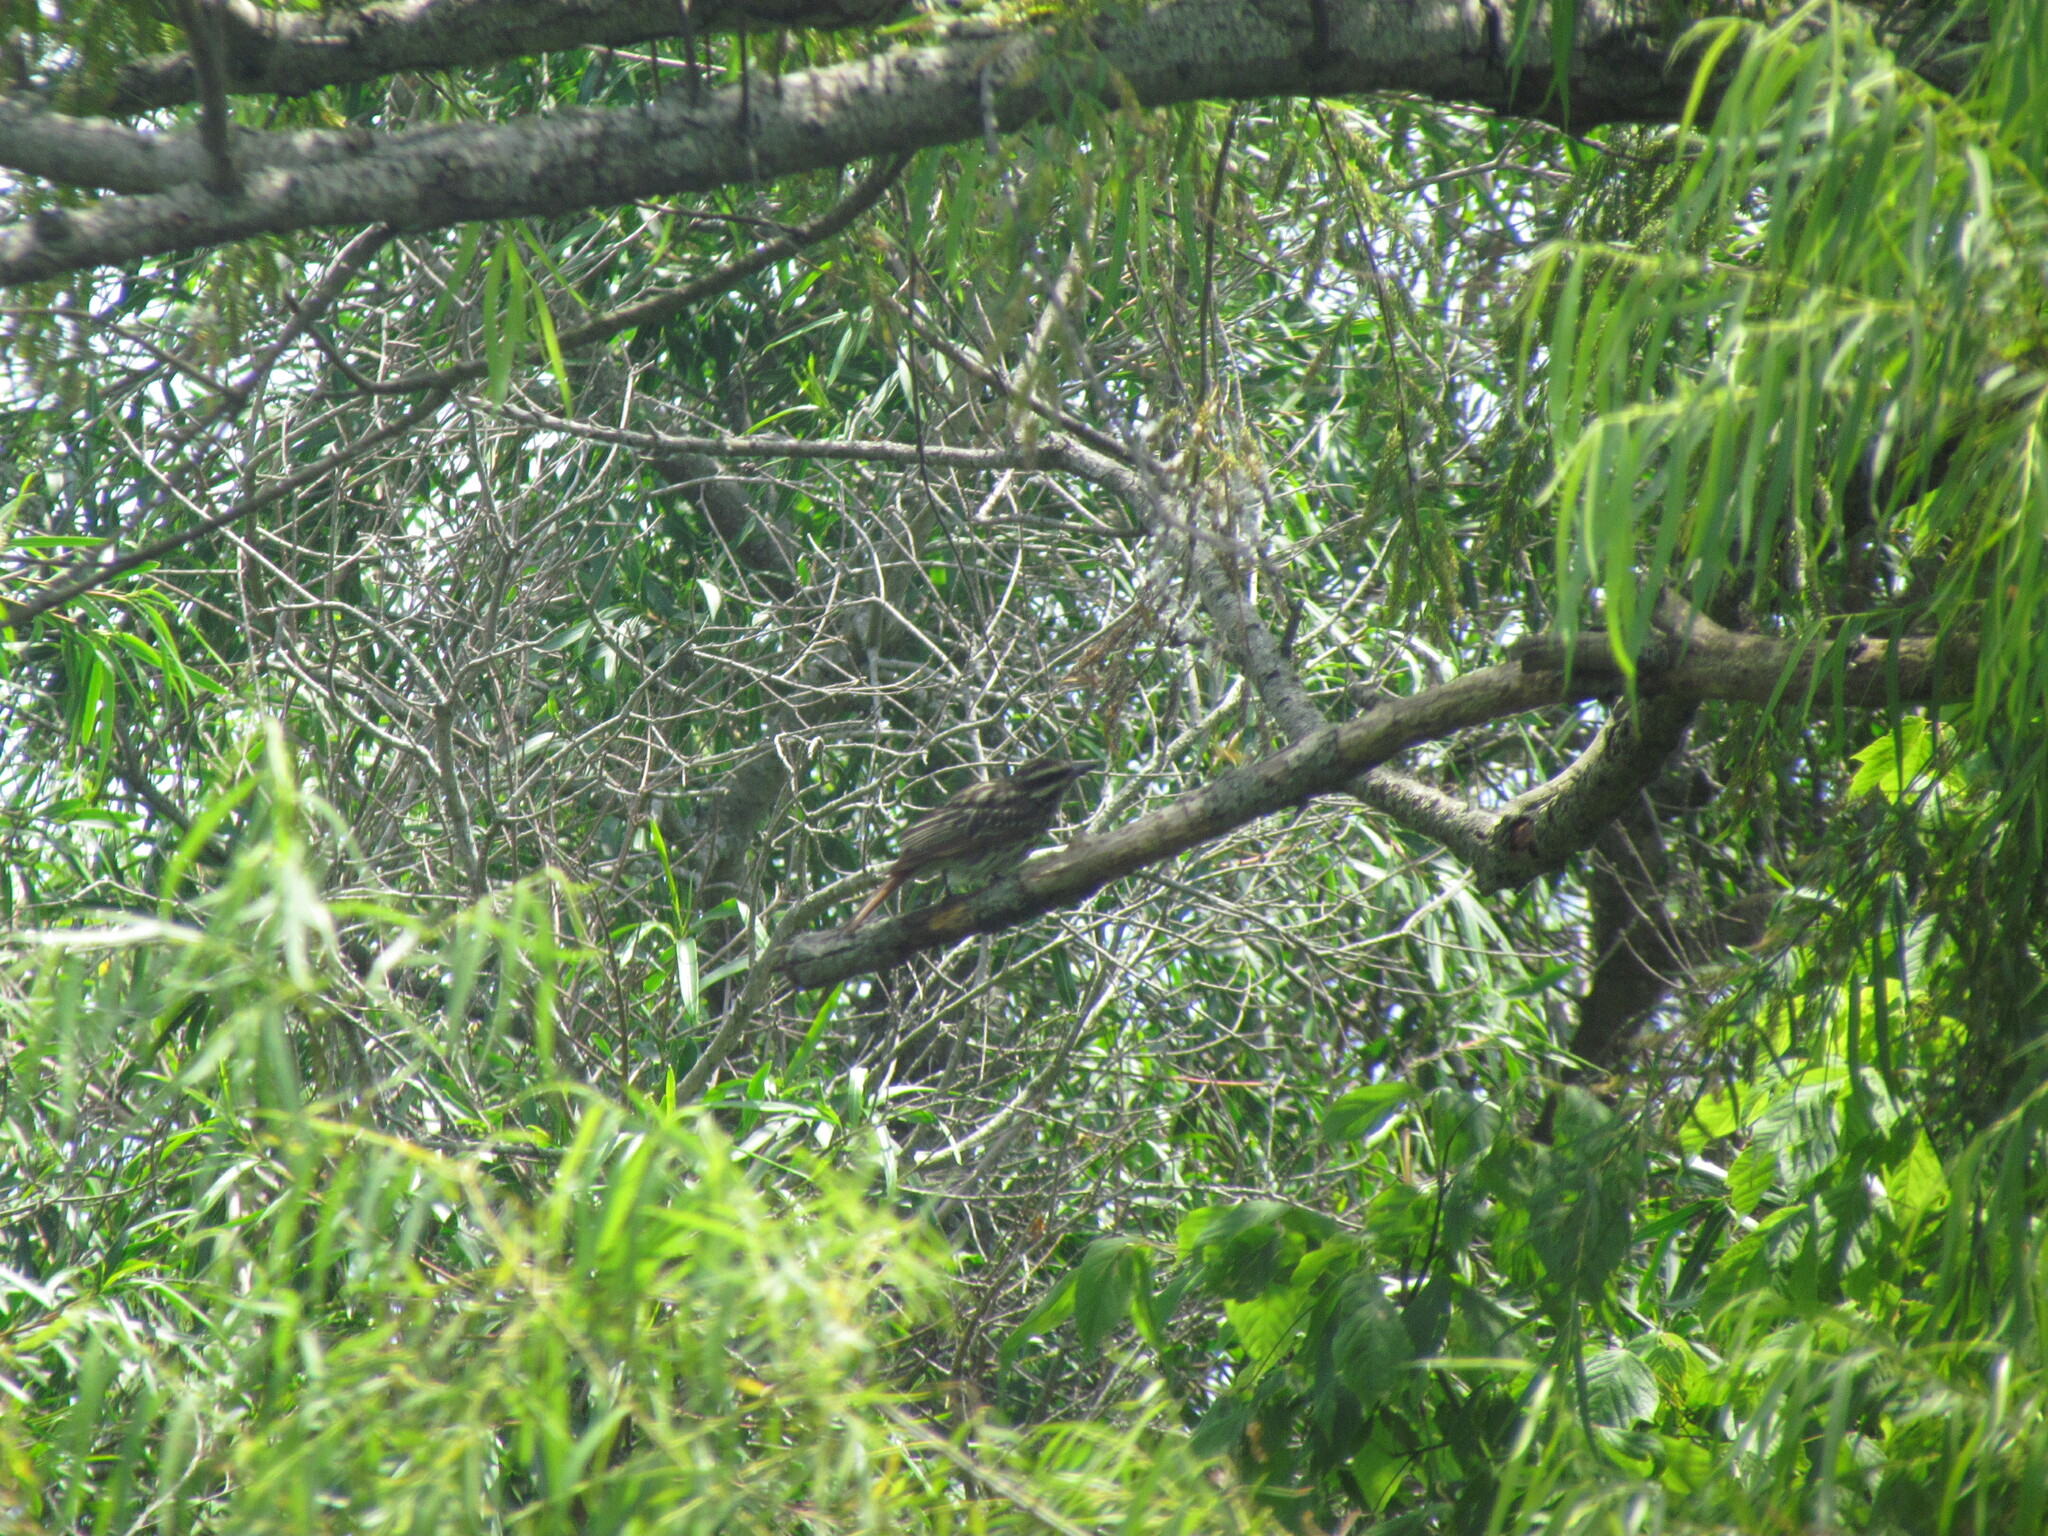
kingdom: Animalia
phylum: Chordata
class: Aves
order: Passeriformes
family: Tyrannidae
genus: Myiodynastes
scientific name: Myiodynastes maculatus
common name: Streaked flycatcher
